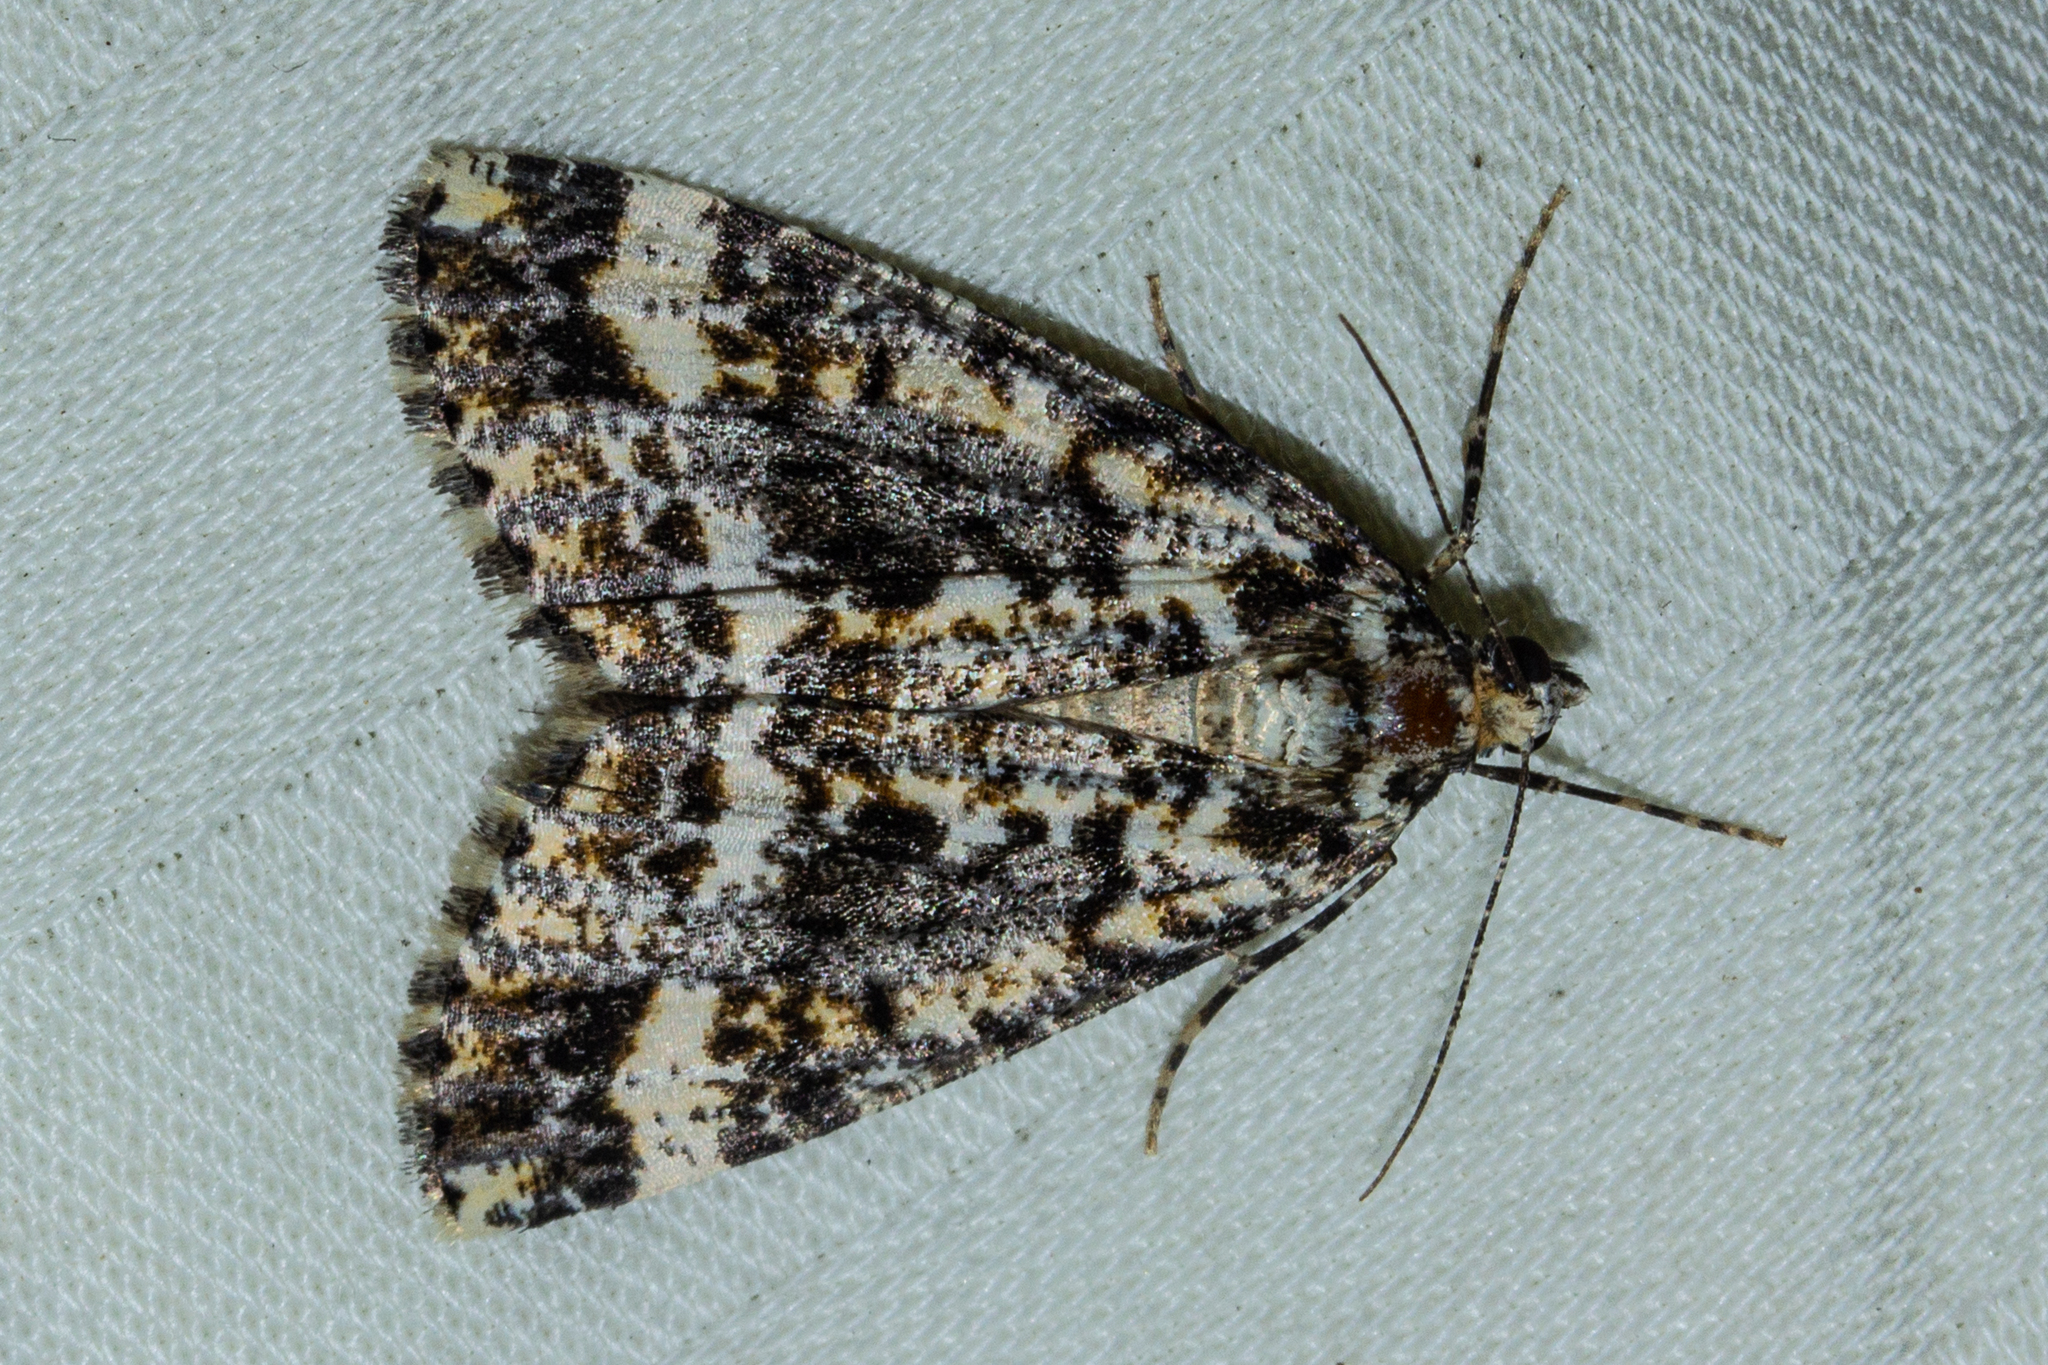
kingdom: Animalia
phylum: Arthropoda
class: Insecta
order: Lepidoptera
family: Geometridae
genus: Pseudocoremia
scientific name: Pseudocoremia leucelaea
